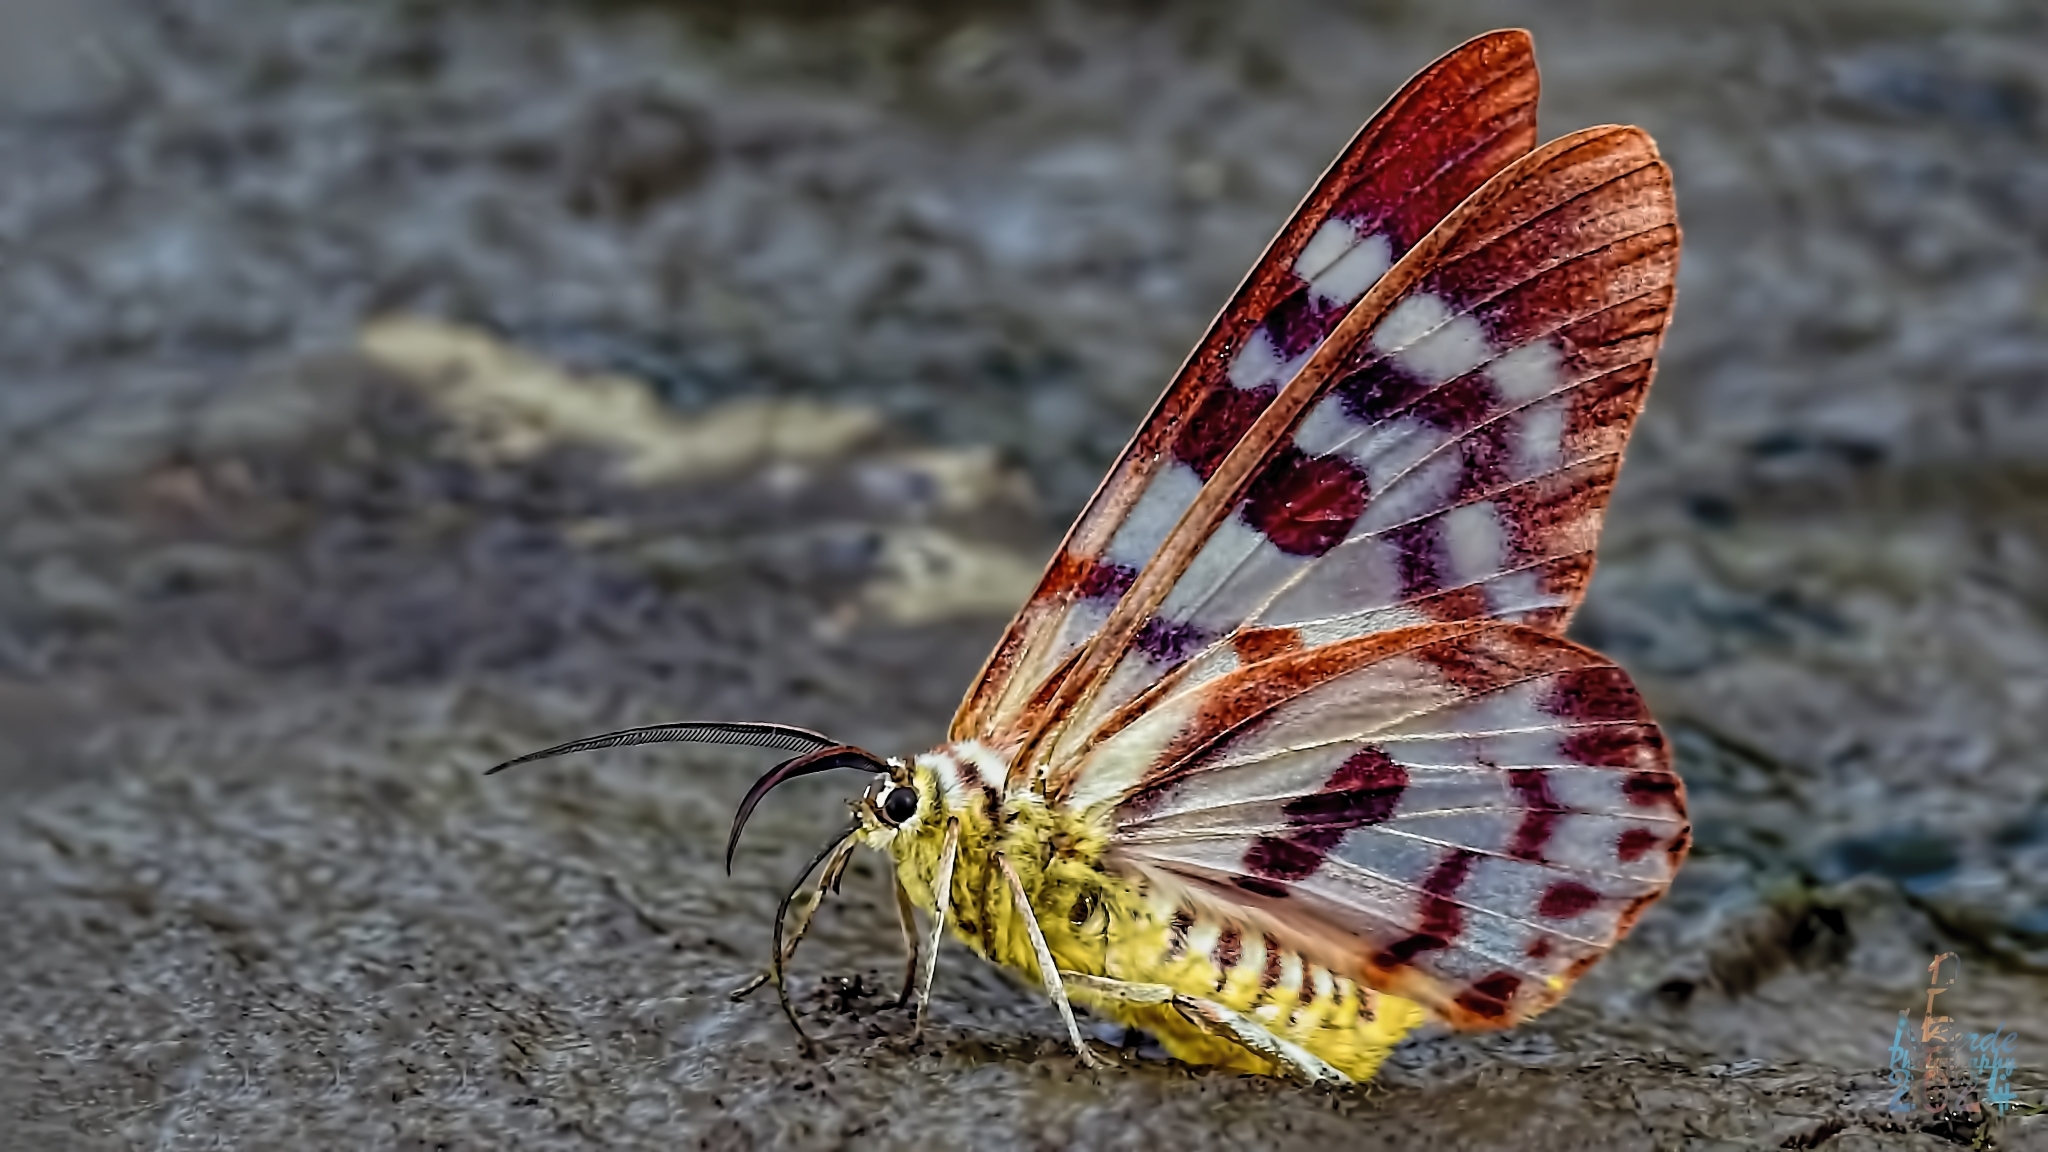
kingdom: Animalia
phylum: Arthropoda
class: Insecta
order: Lepidoptera
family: Geometridae
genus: Dysphania
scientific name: Dysphania palmyra
